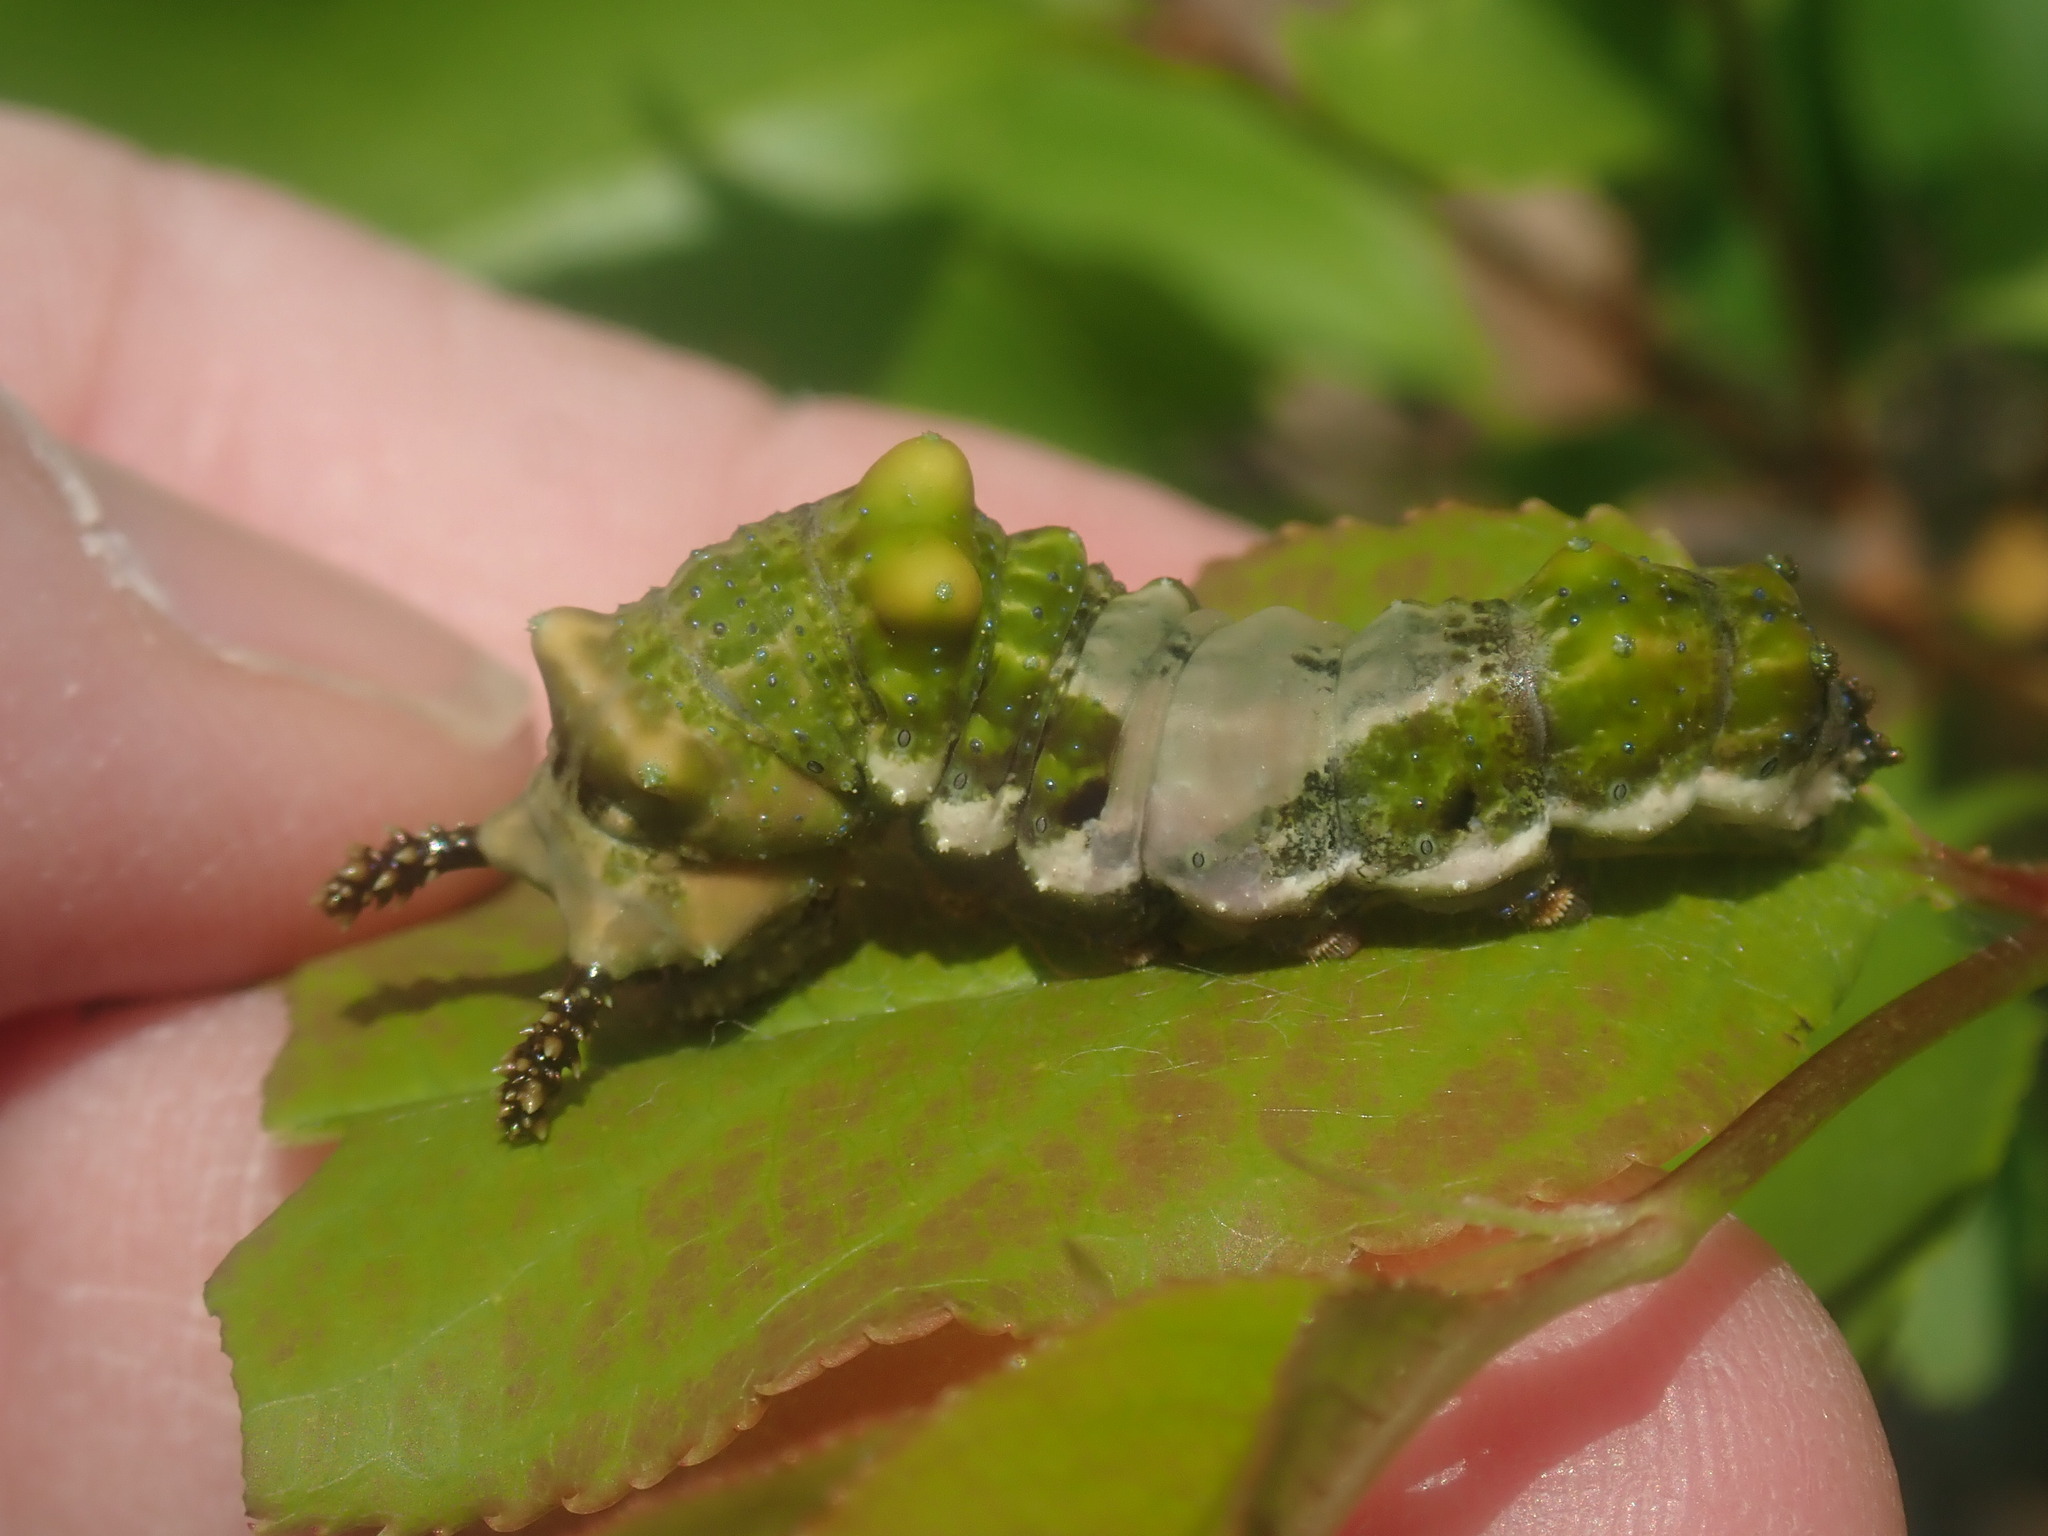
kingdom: Animalia
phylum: Arthropoda
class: Insecta
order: Lepidoptera
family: Nymphalidae
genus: Limenitis
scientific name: Limenitis archippus
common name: Viceroy
